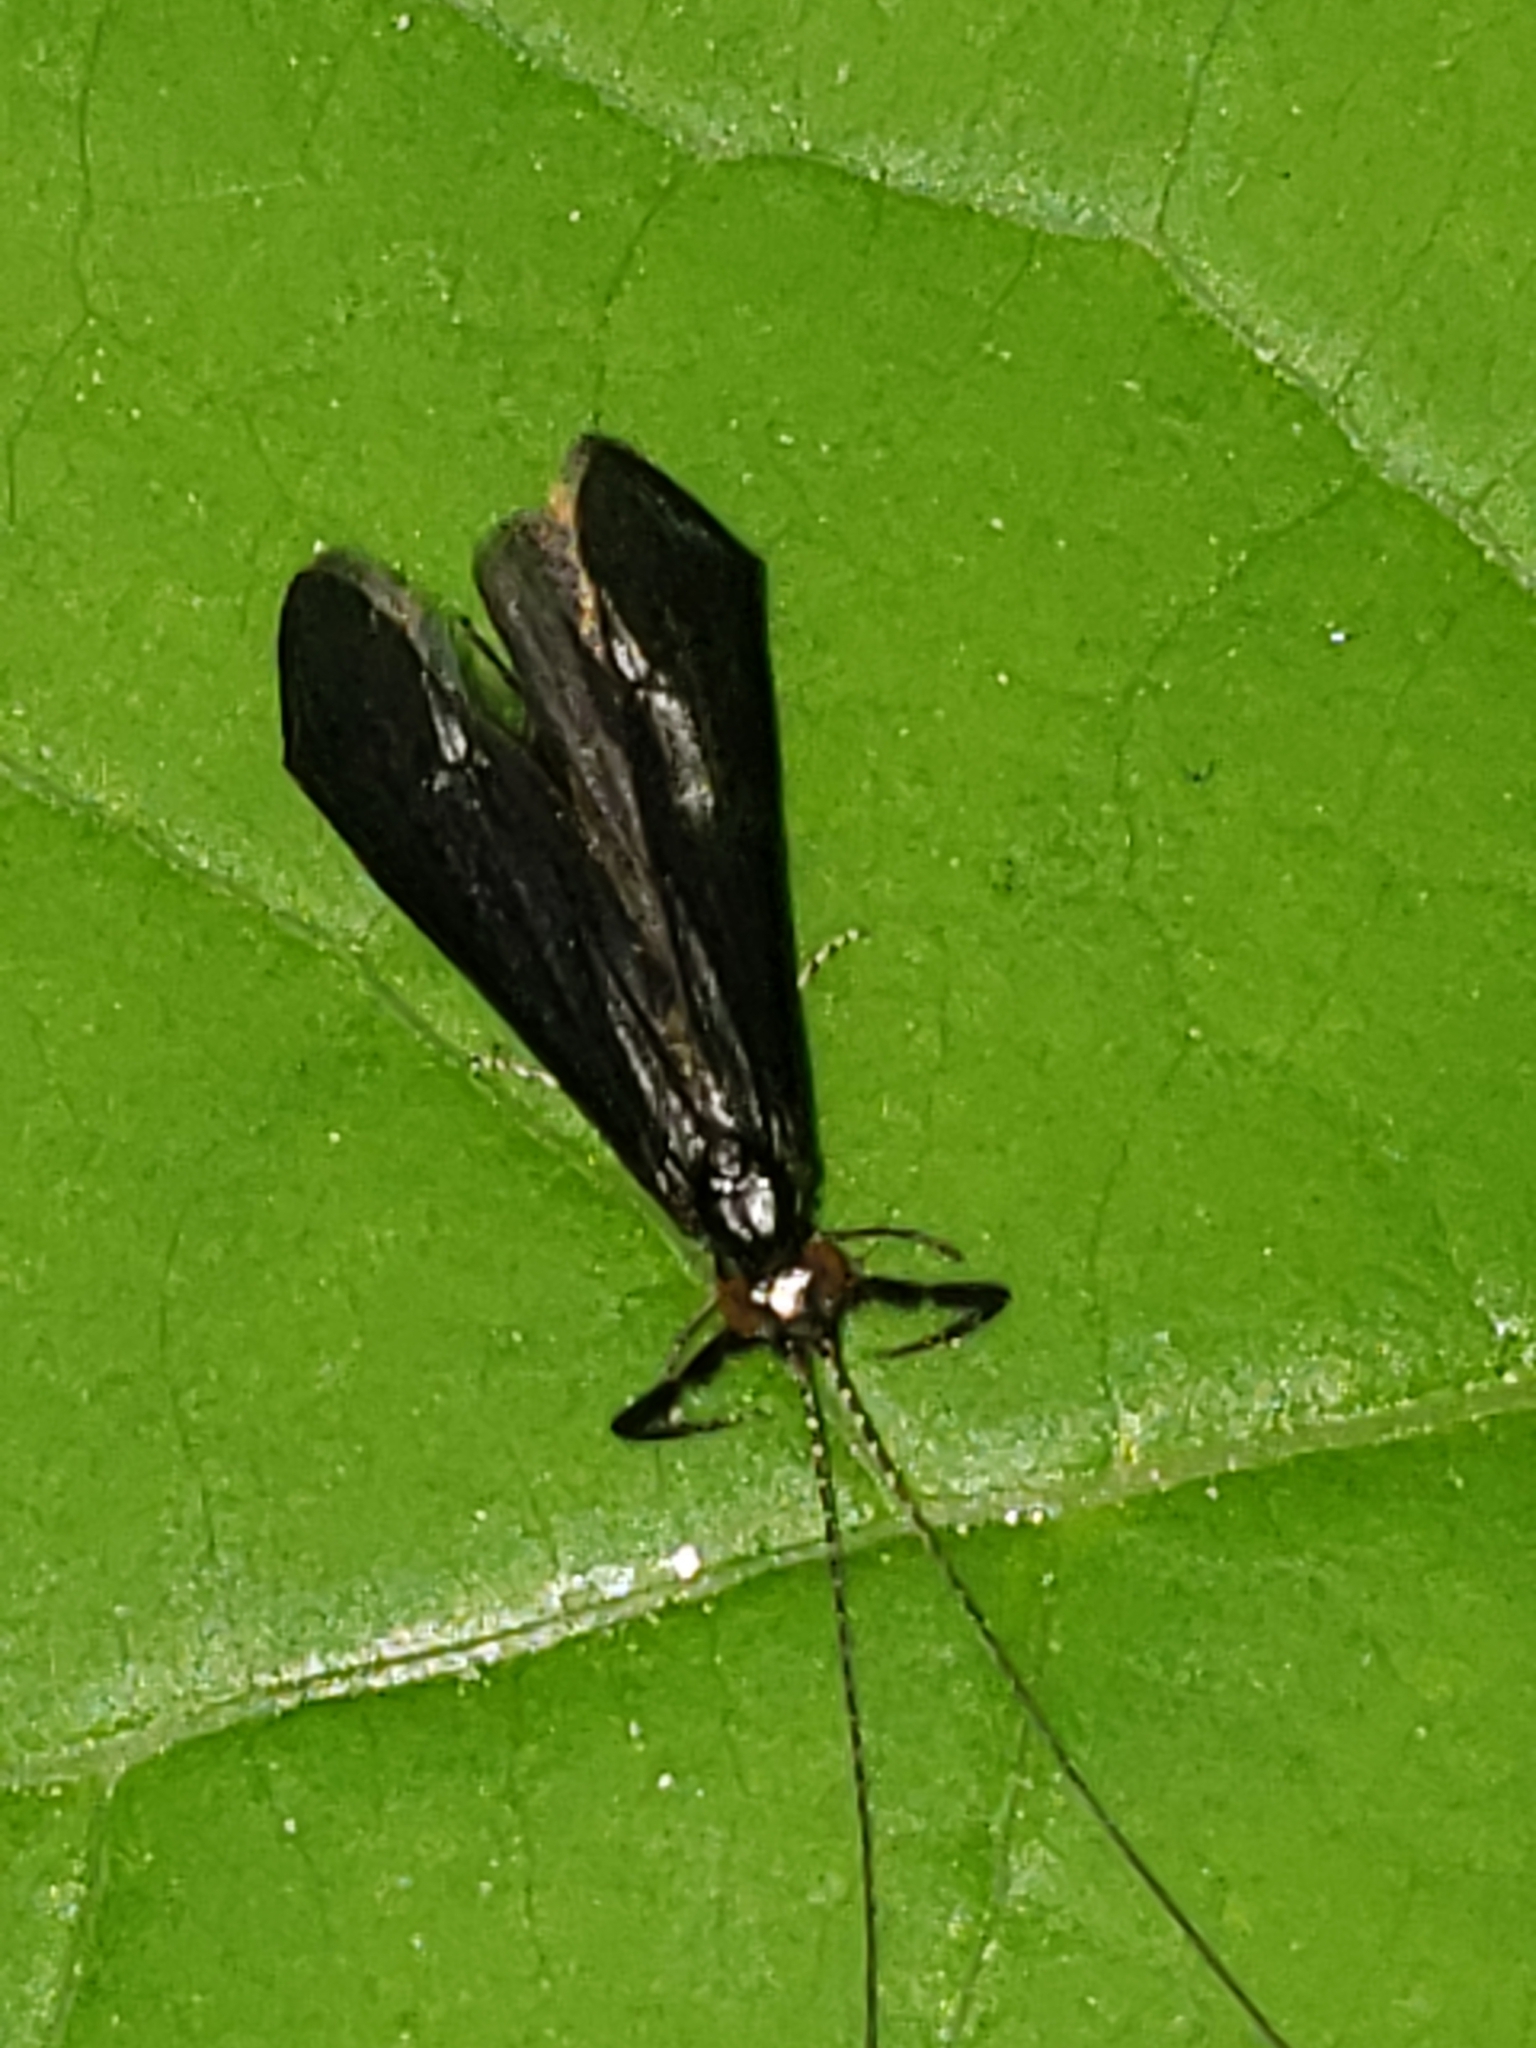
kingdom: Animalia
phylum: Arthropoda
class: Insecta
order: Trichoptera
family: Leptoceridae
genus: Mystacides
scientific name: Mystacides sepulchralis
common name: Black dancer caddisfly
